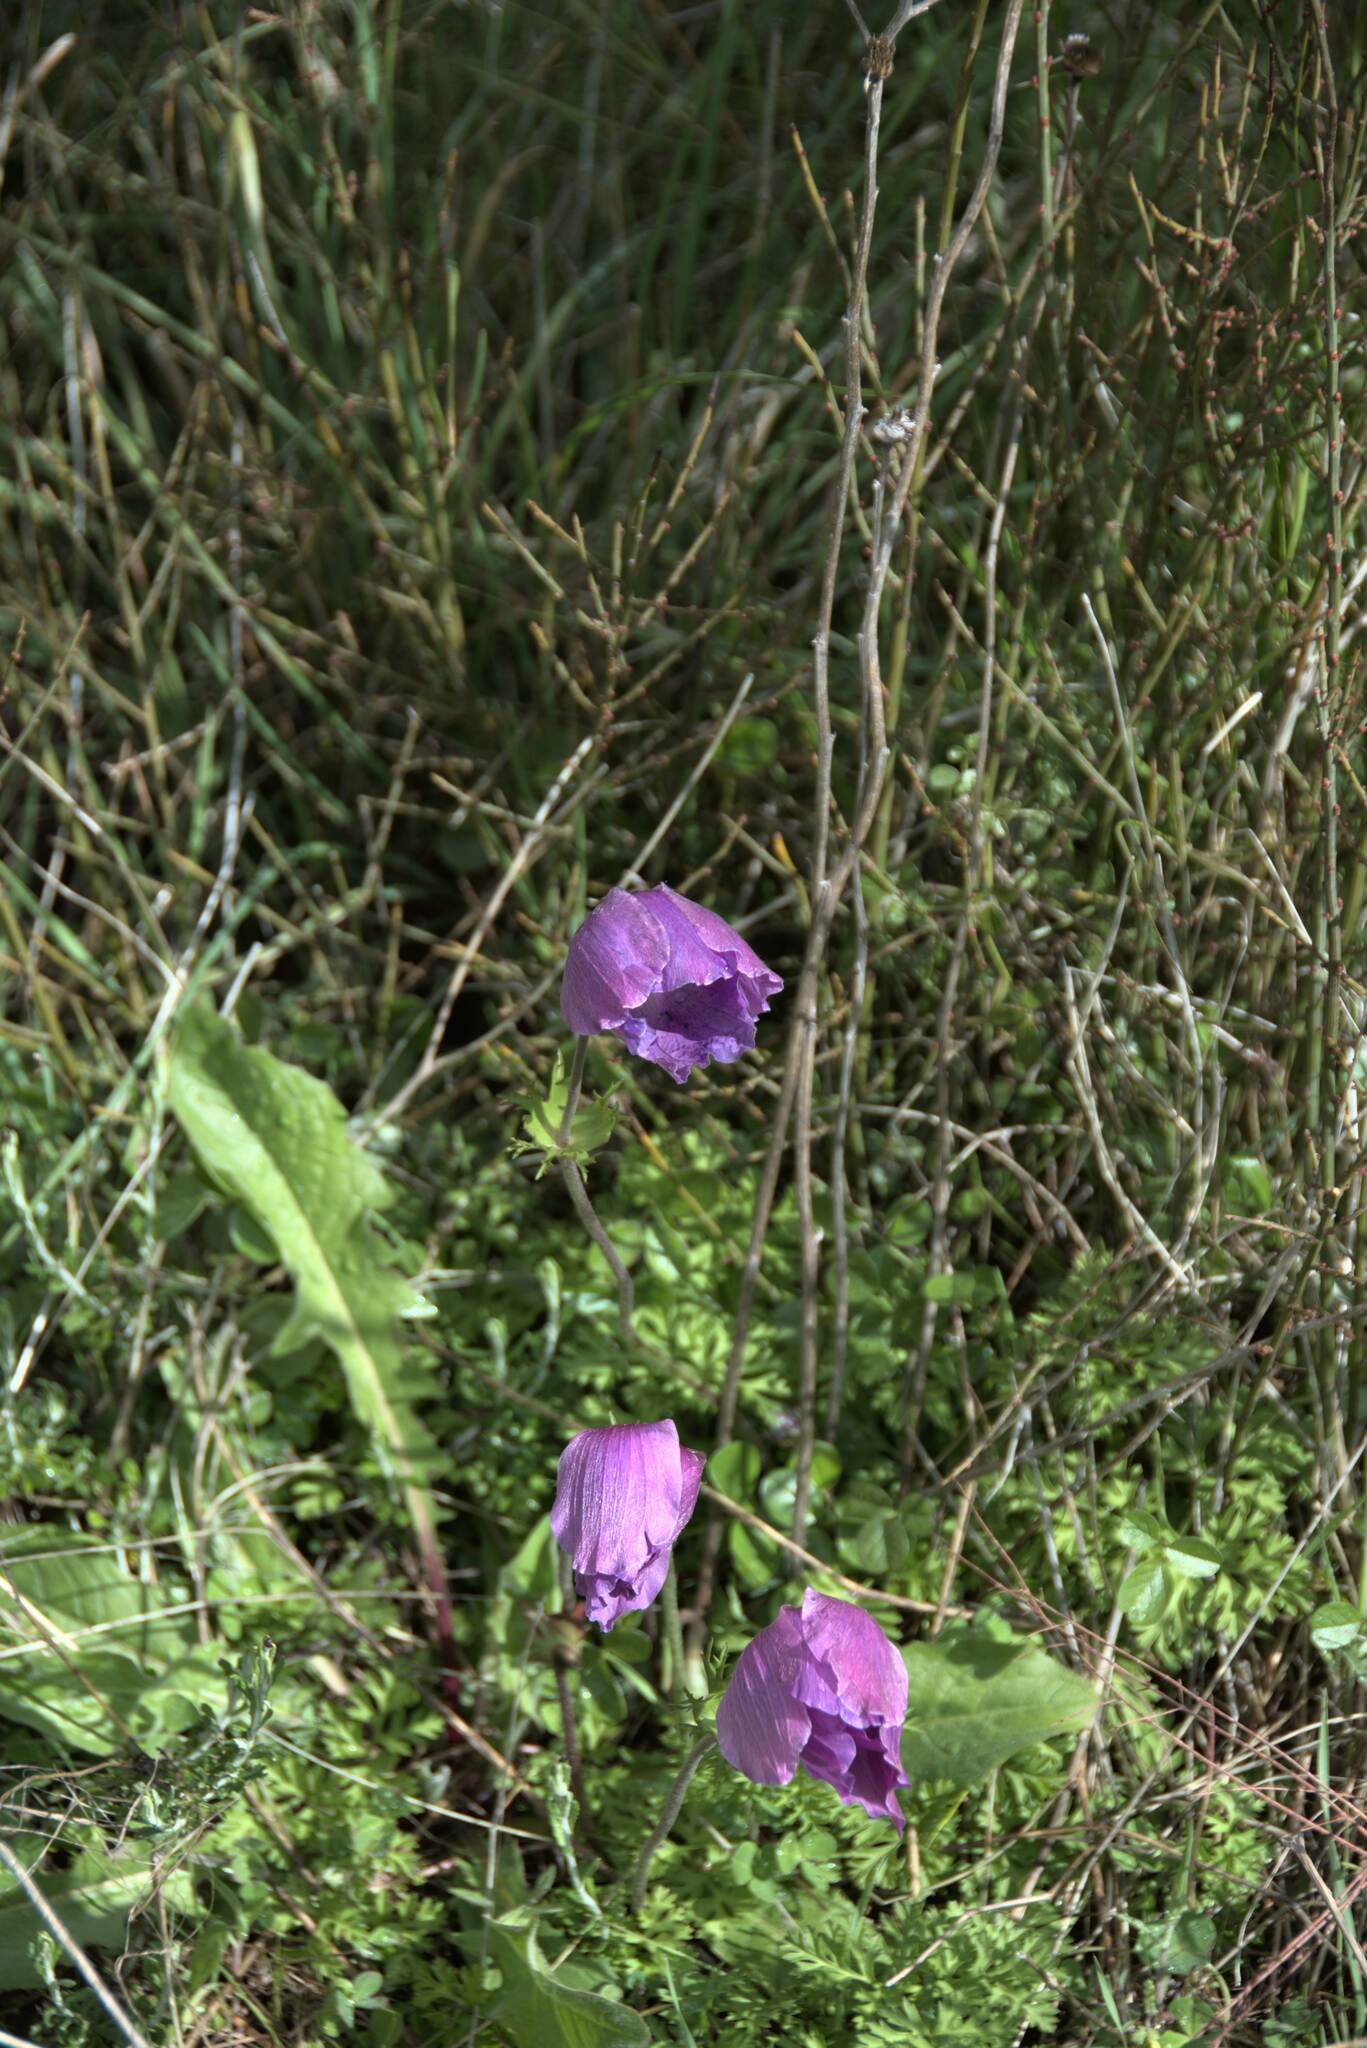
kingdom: Plantae
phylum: Tracheophyta
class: Magnoliopsida
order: Ranunculales
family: Ranunculaceae
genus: Anemone
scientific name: Anemone coronaria
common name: Poppy anemone
